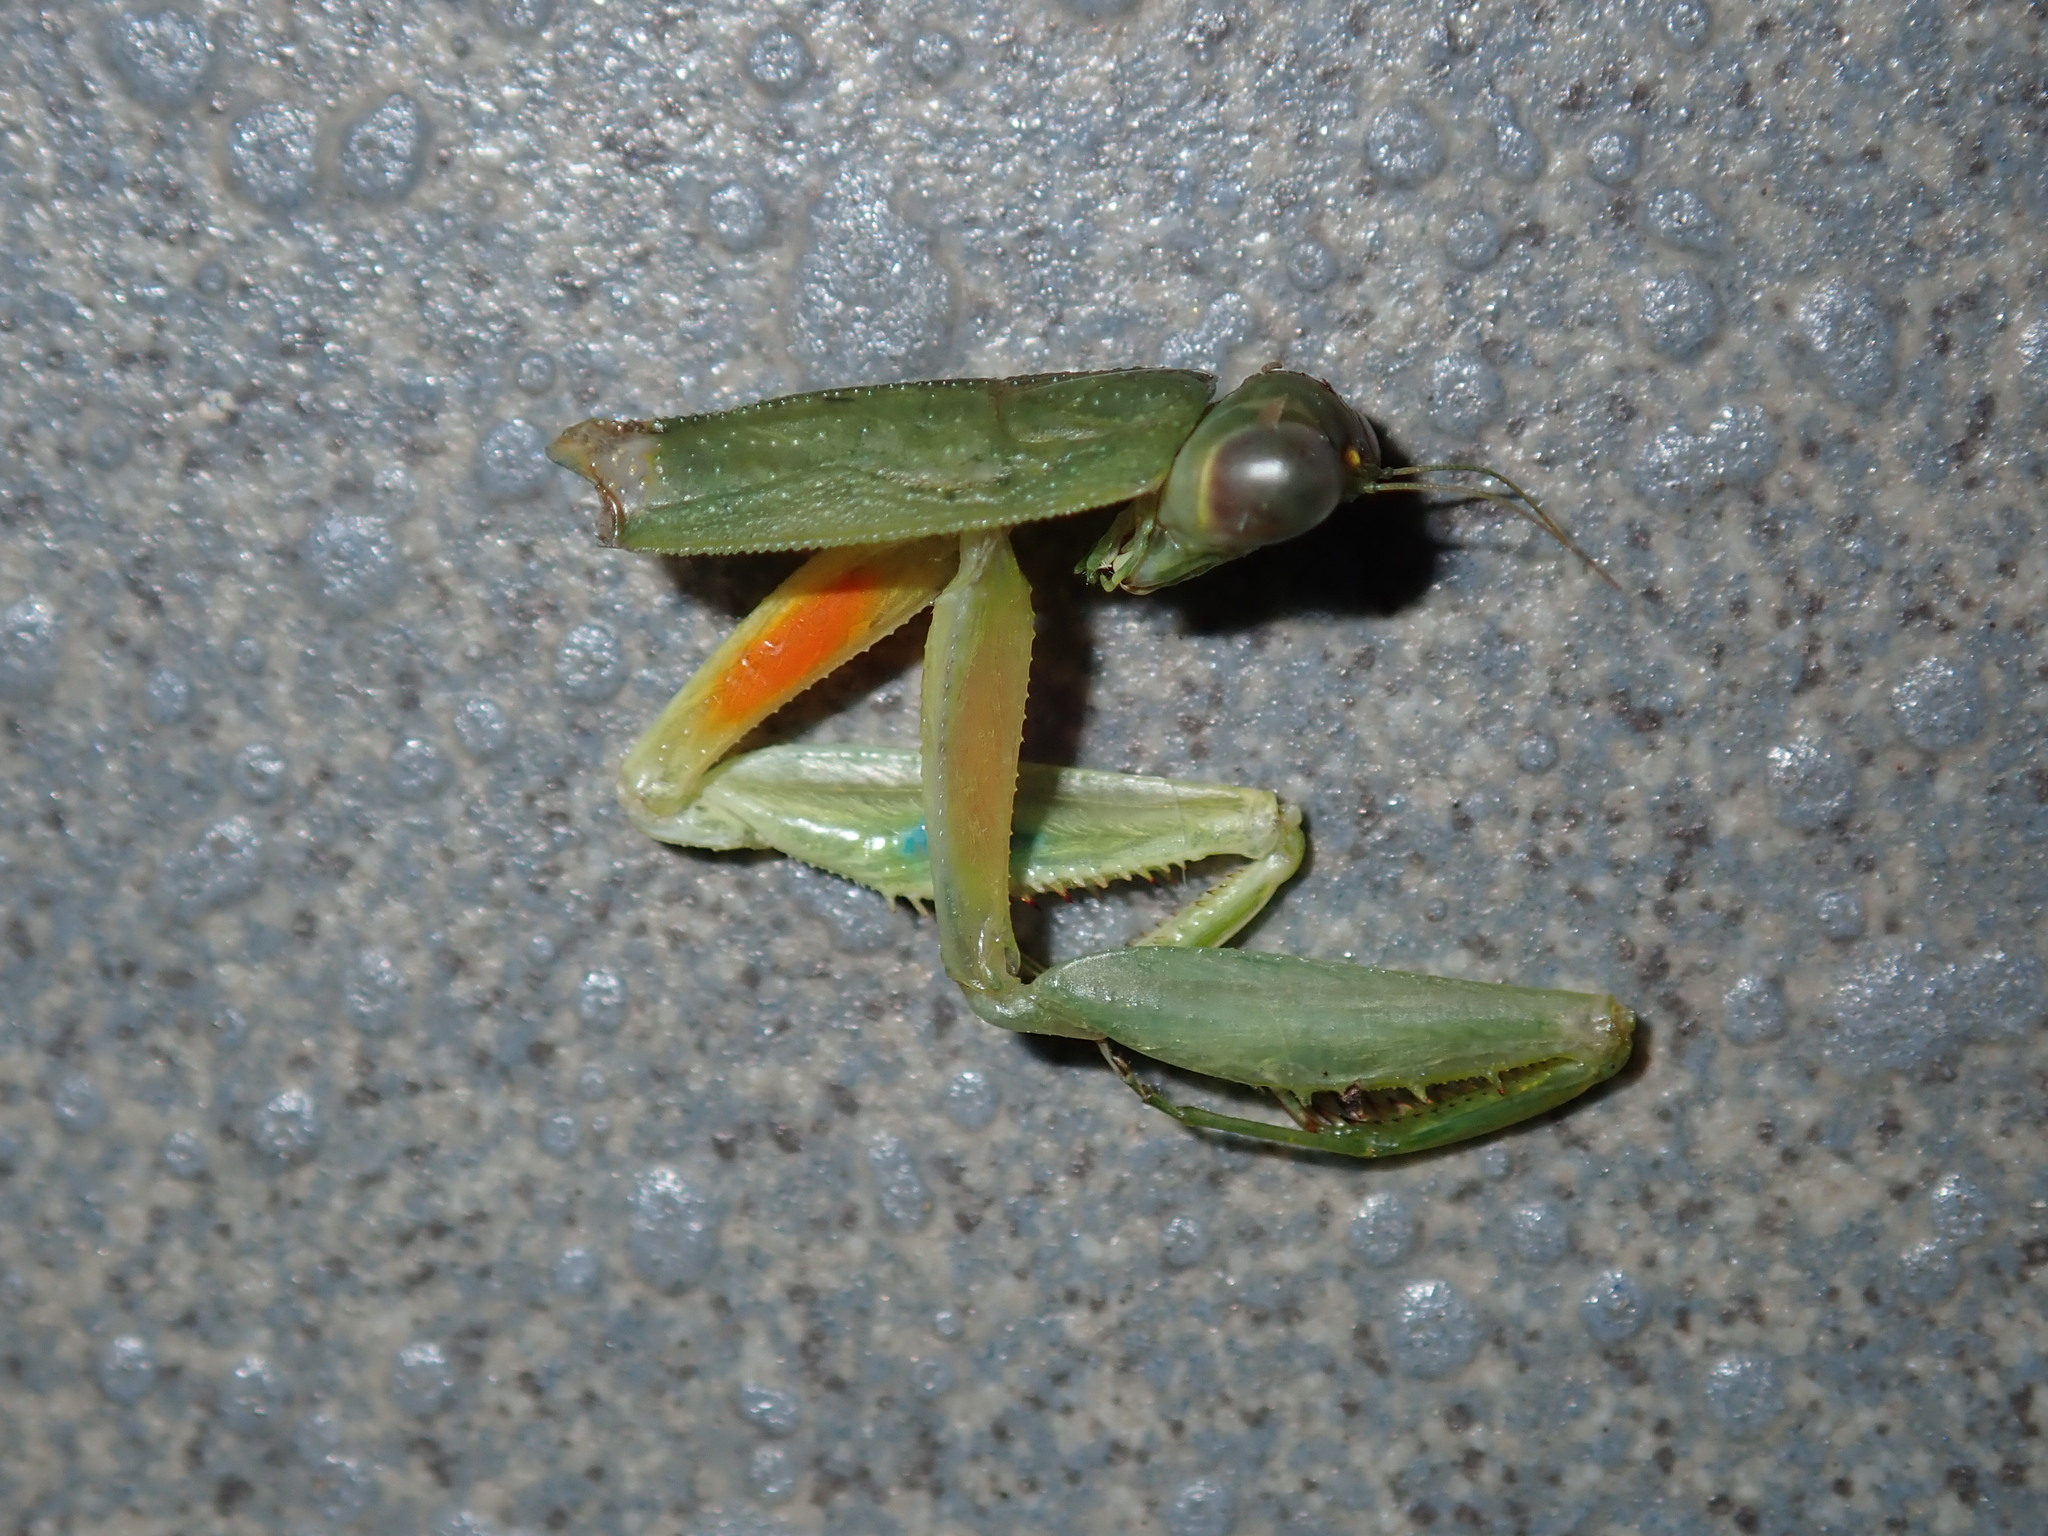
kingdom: Animalia
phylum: Arthropoda
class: Insecta
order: Mantodea
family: Mantidae
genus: Orthodera
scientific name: Orthodera ministralis
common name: Mantis
